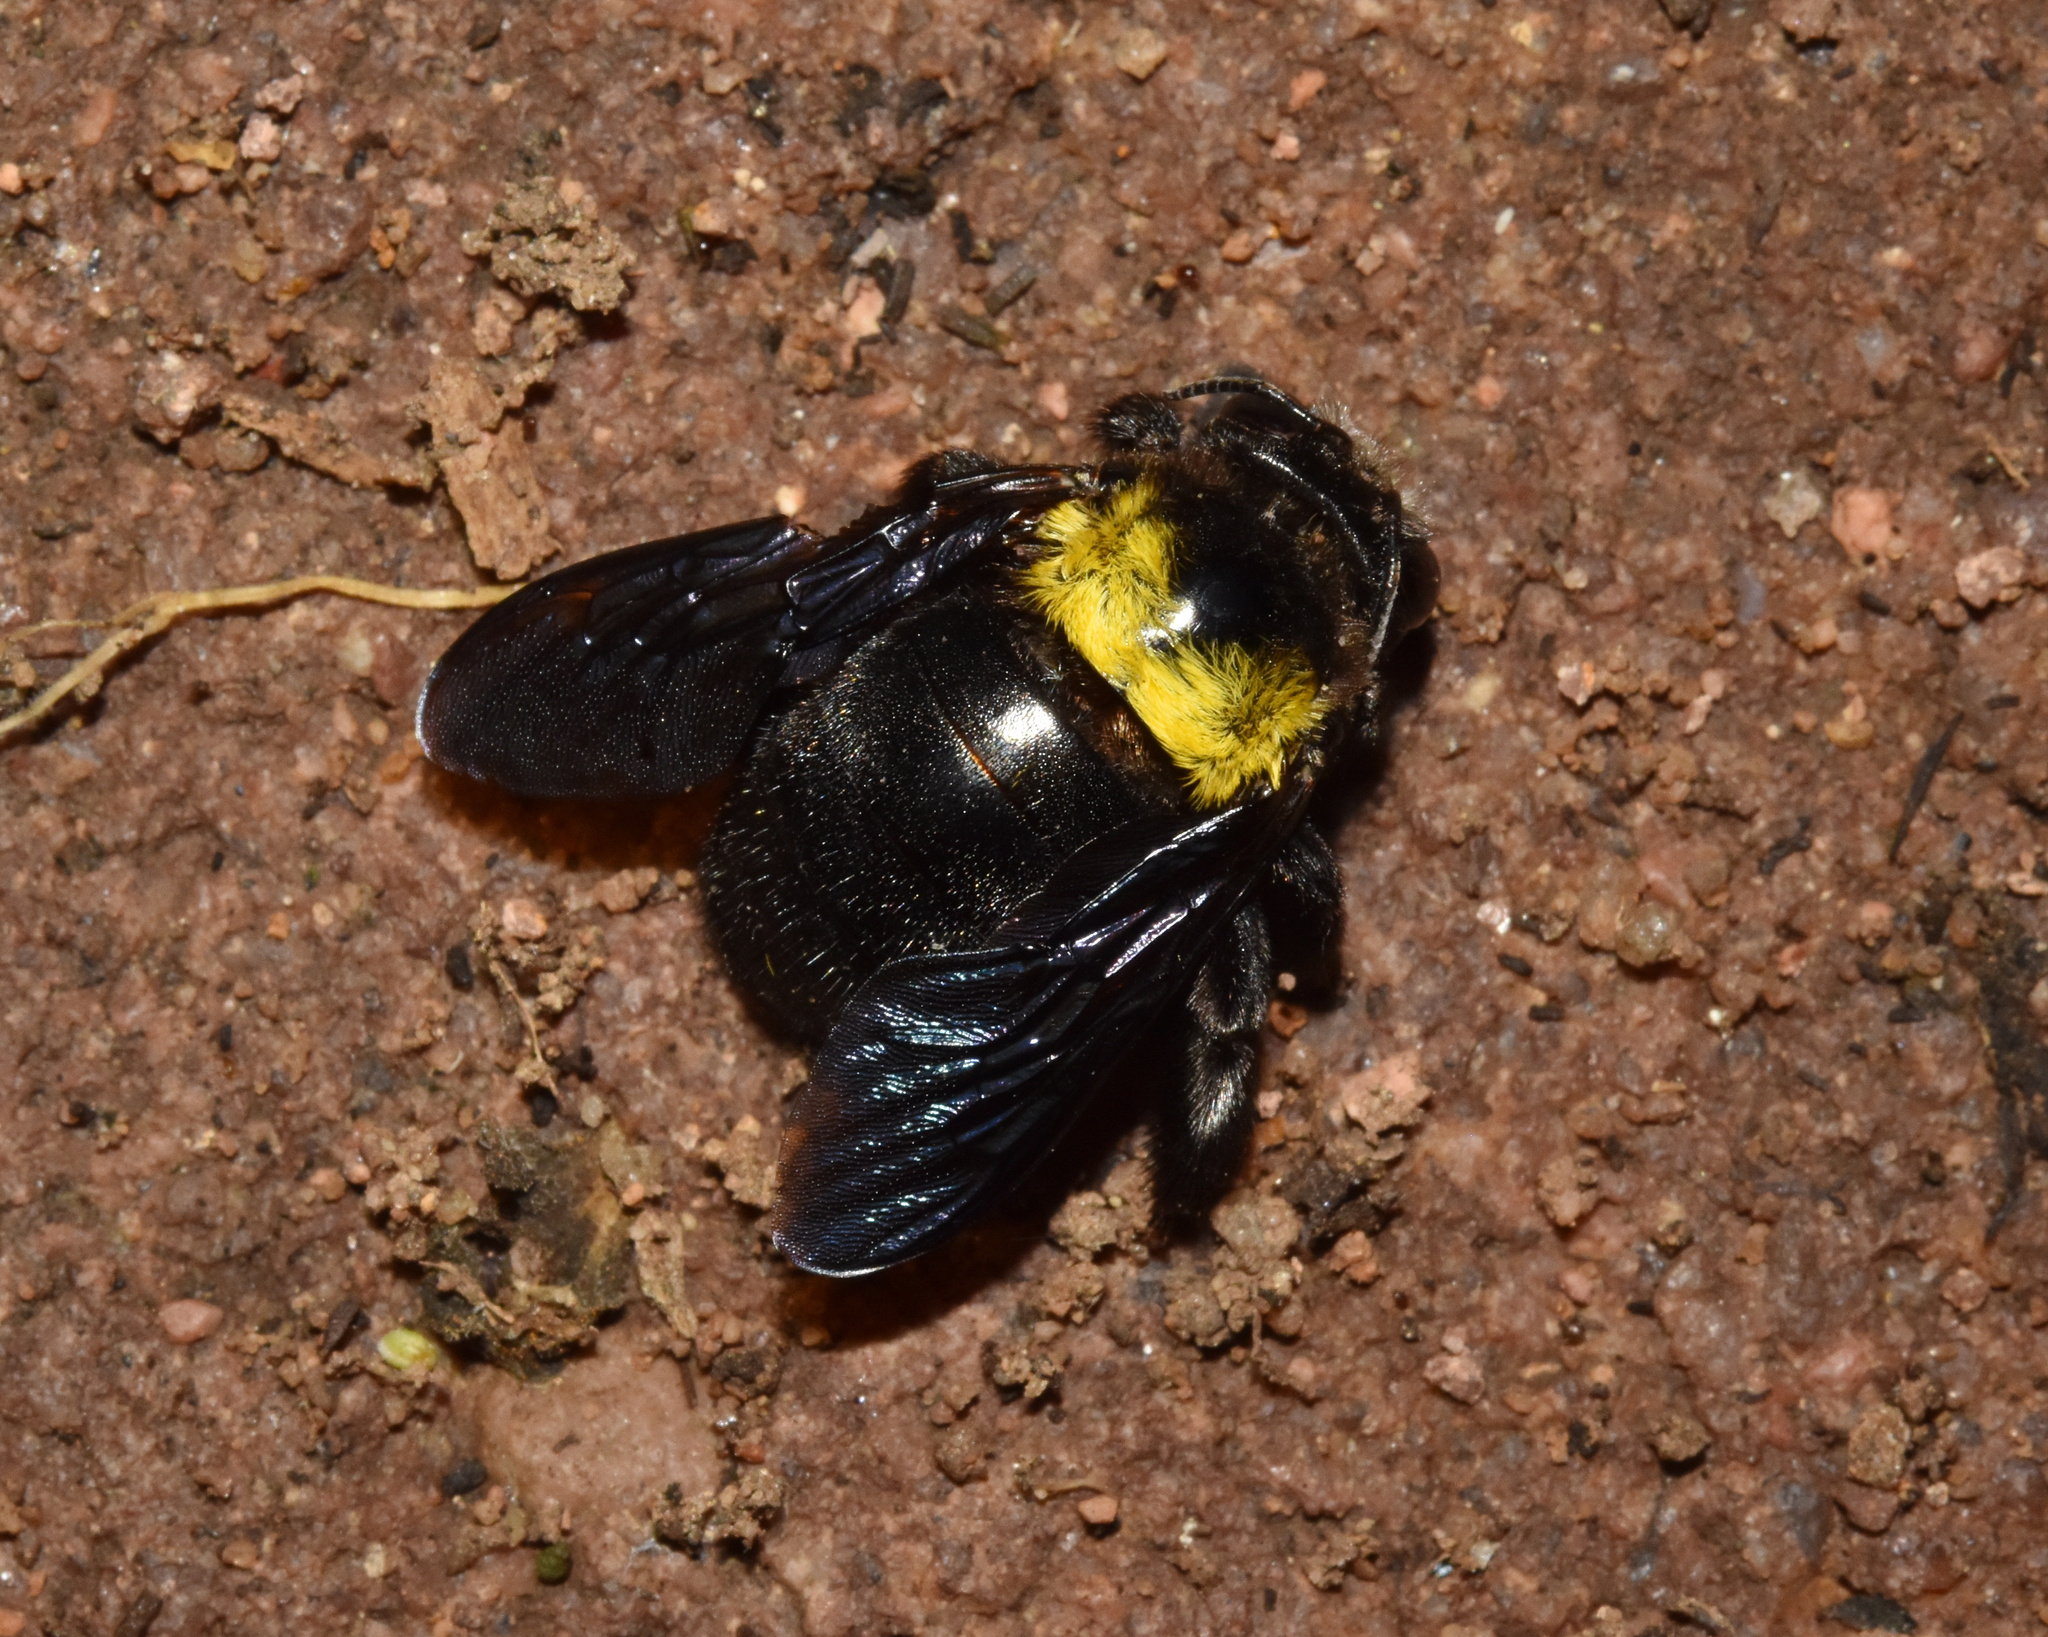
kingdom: Animalia
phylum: Arthropoda
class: Insecta
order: Hymenoptera
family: Apidae
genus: Xylocopa
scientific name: Xylocopa flavicollis
